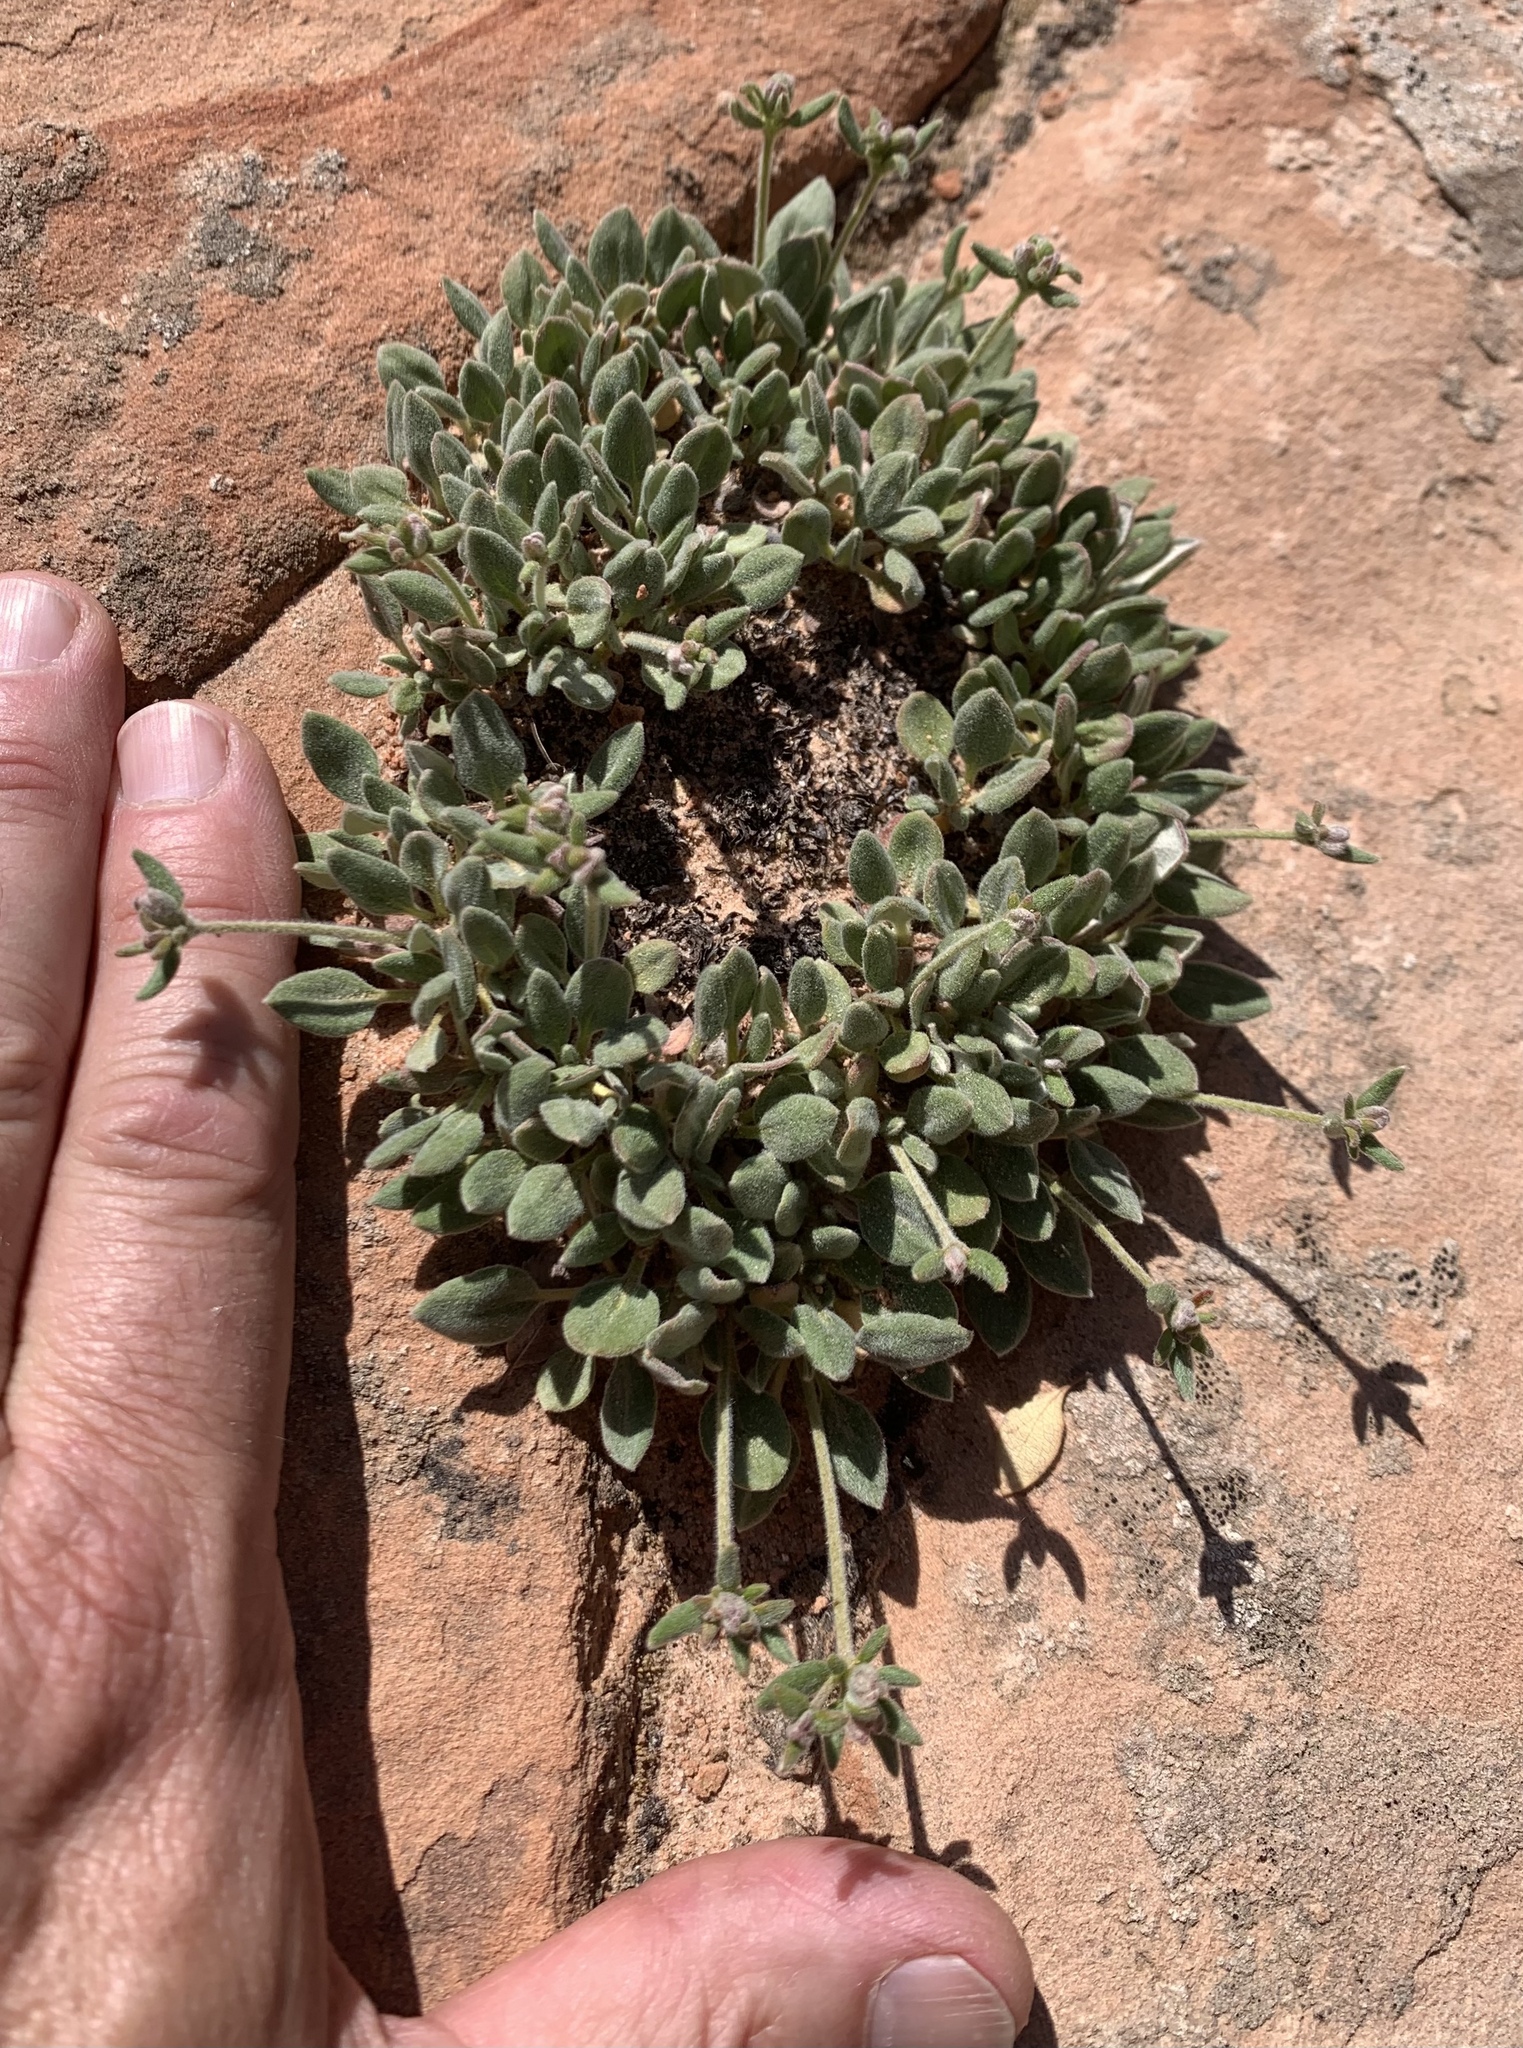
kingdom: Plantae
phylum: Tracheophyta
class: Magnoliopsida
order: Caryophyllales
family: Polygonaceae
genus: Eriogonum
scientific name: Eriogonum arcuatum
